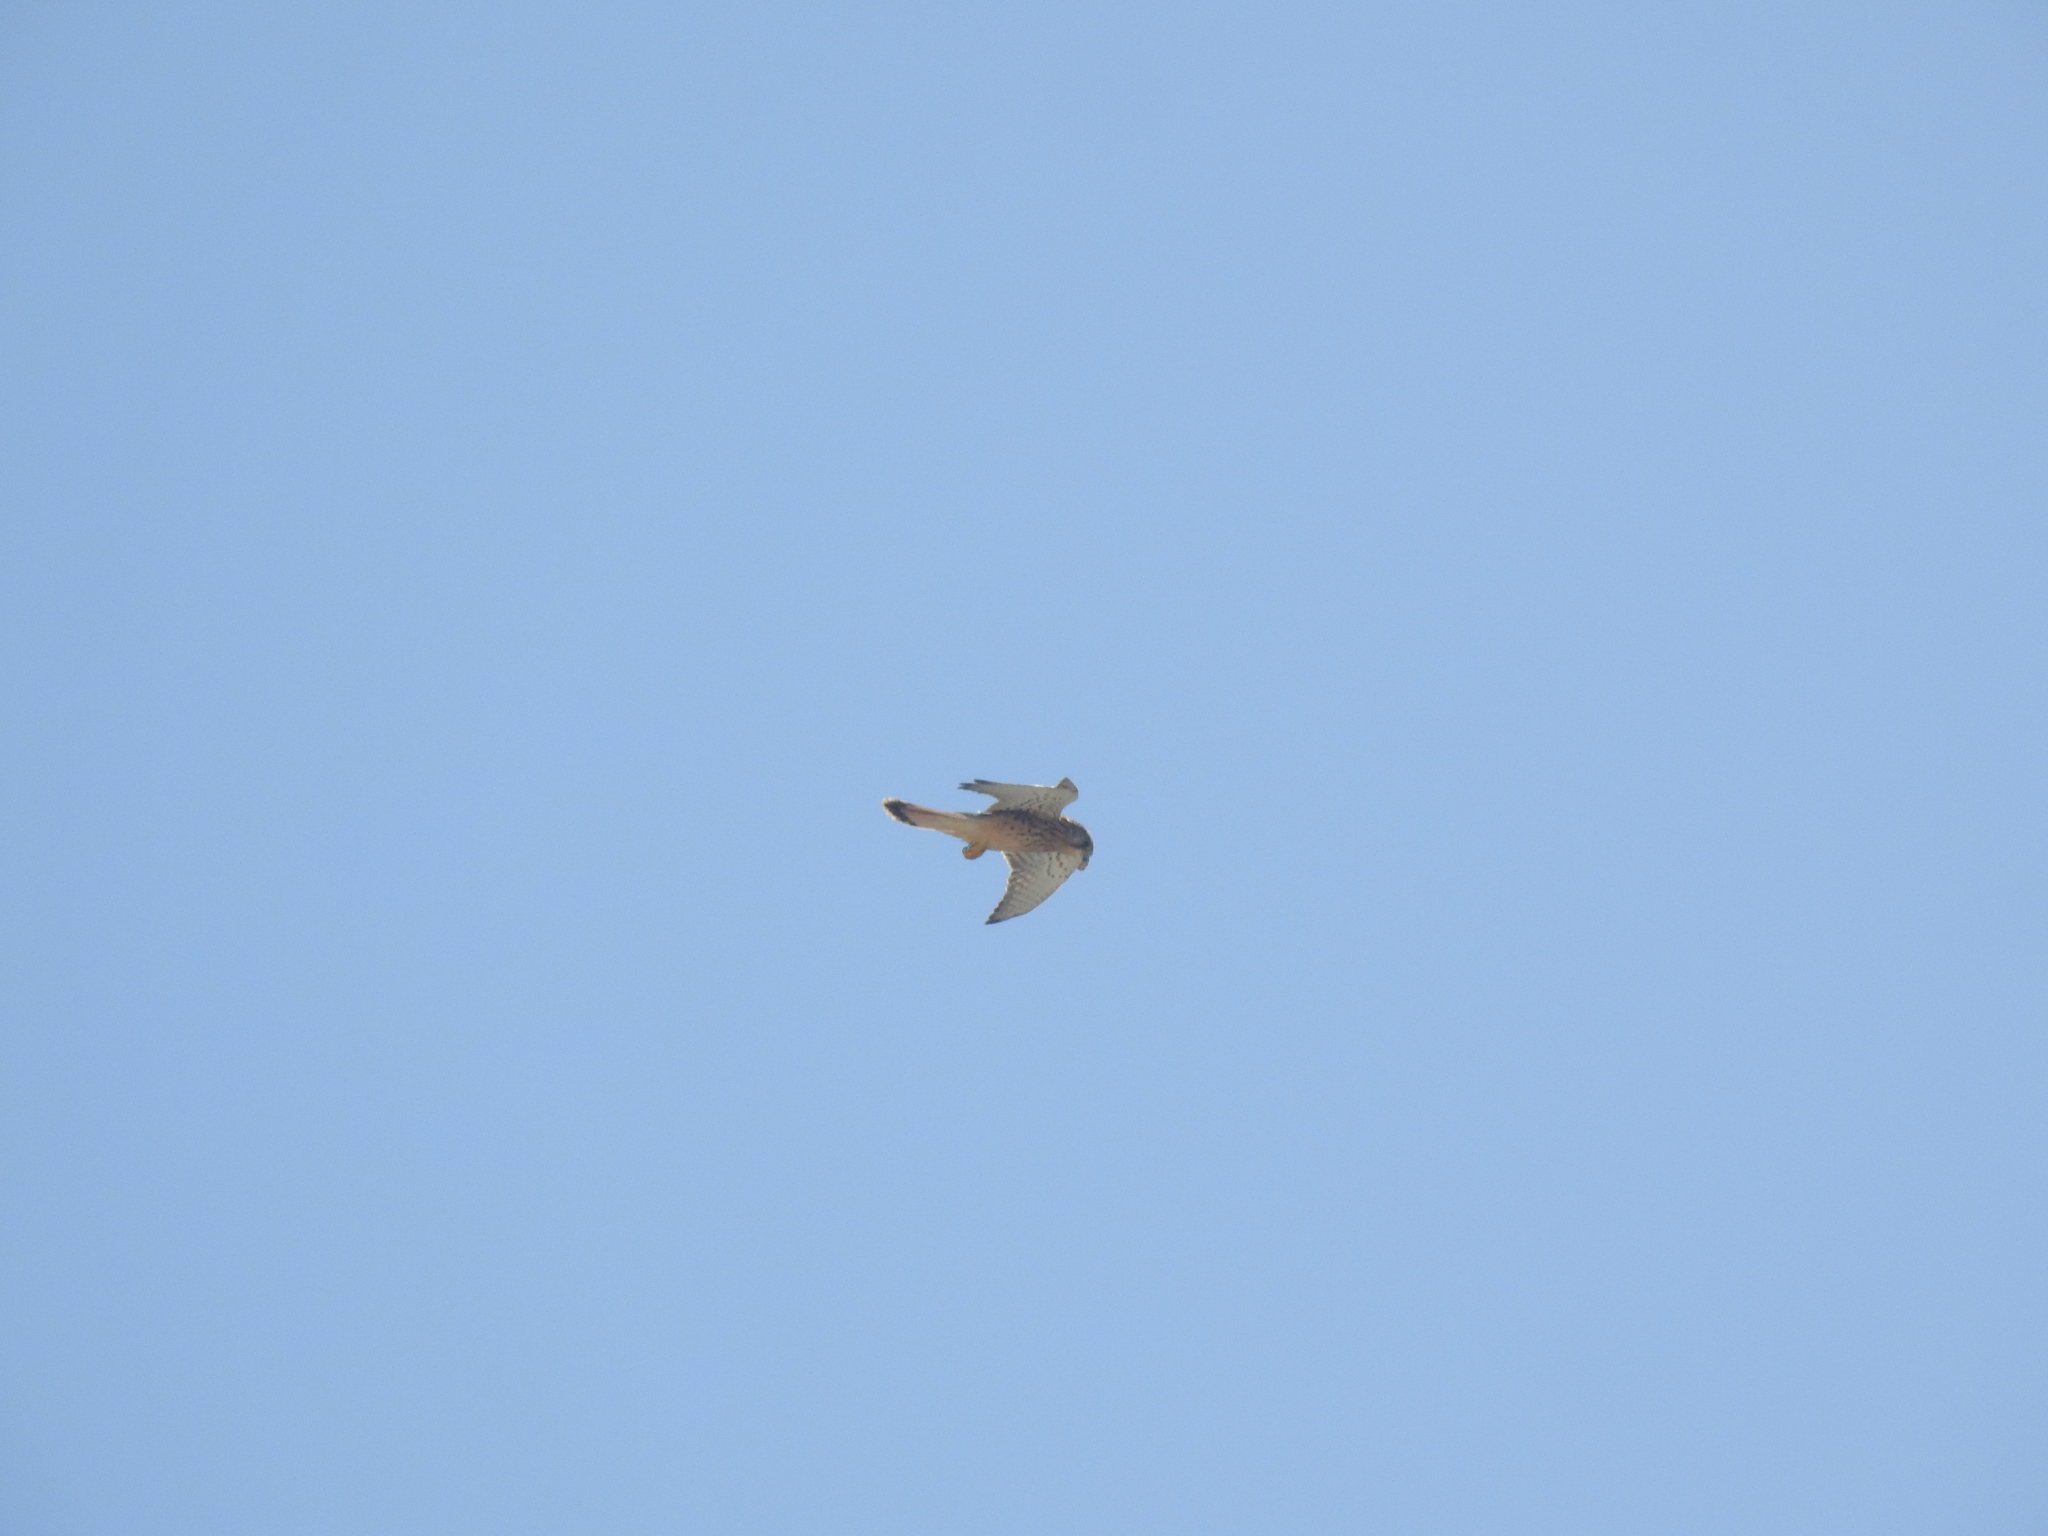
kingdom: Animalia
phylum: Chordata
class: Aves
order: Falconiformes
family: Falconidae
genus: Falco
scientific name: Falco tinnunculus
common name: Common kestrel
